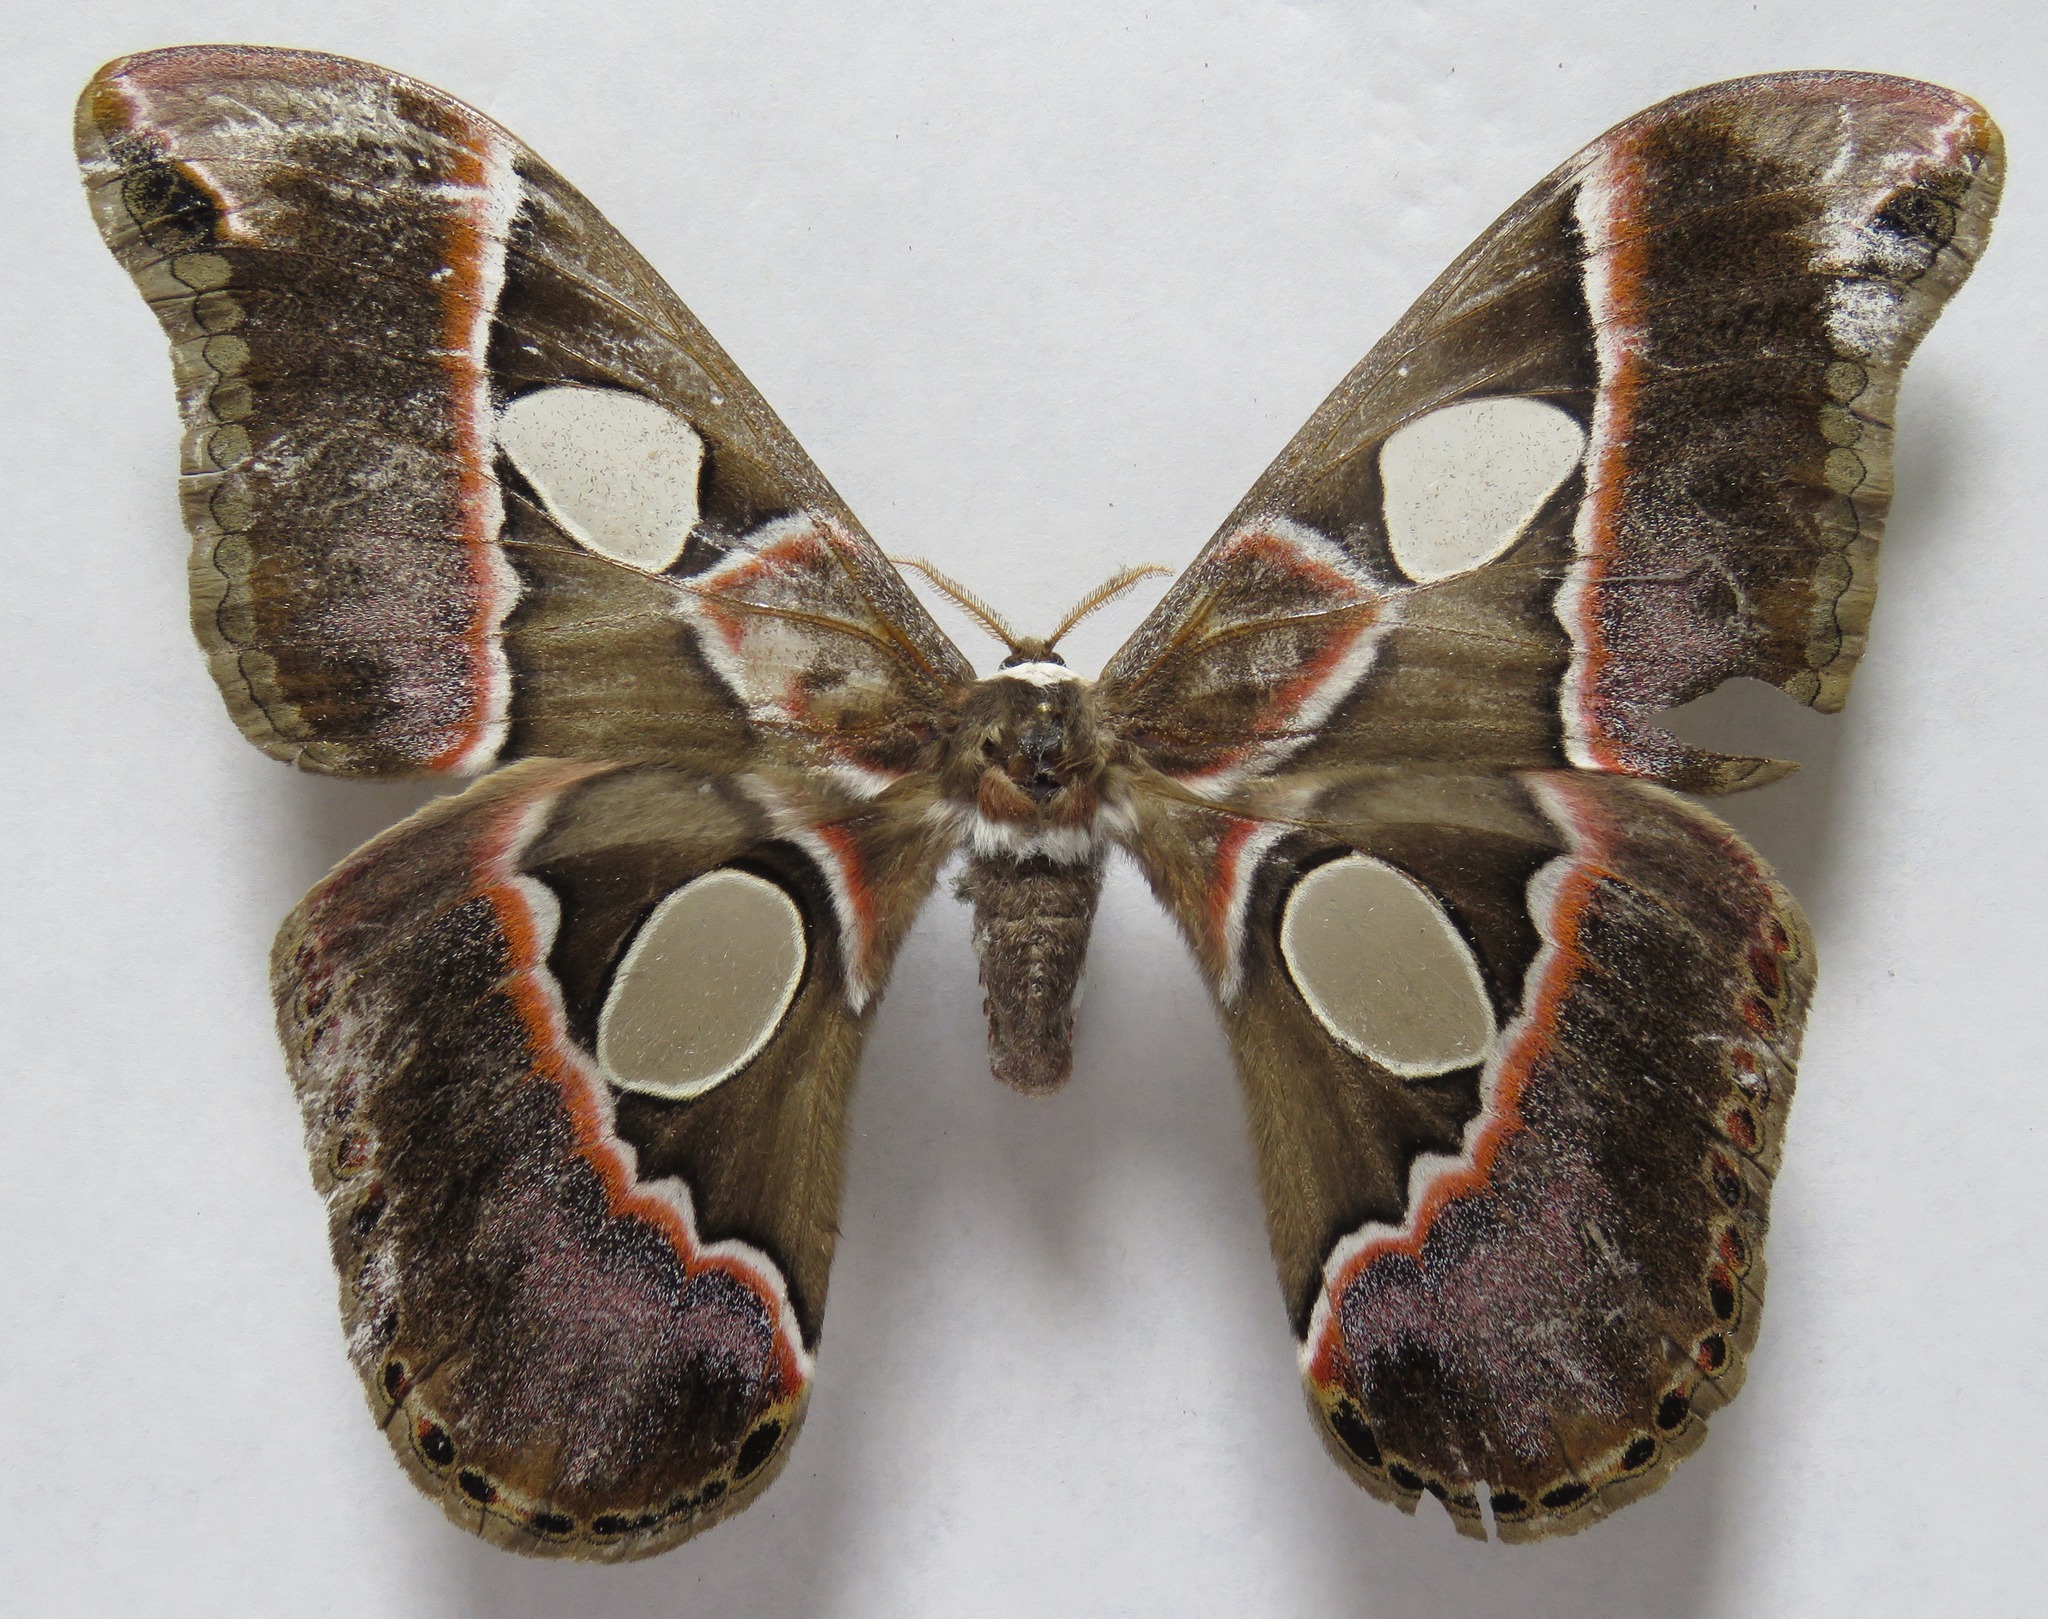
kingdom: Animalia
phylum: Arthropoda
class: Insecta
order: Lepidoptera
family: Saturniidae
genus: Rothschildia
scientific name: Rothschildia lebeau
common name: Lebeau's rothschildia
